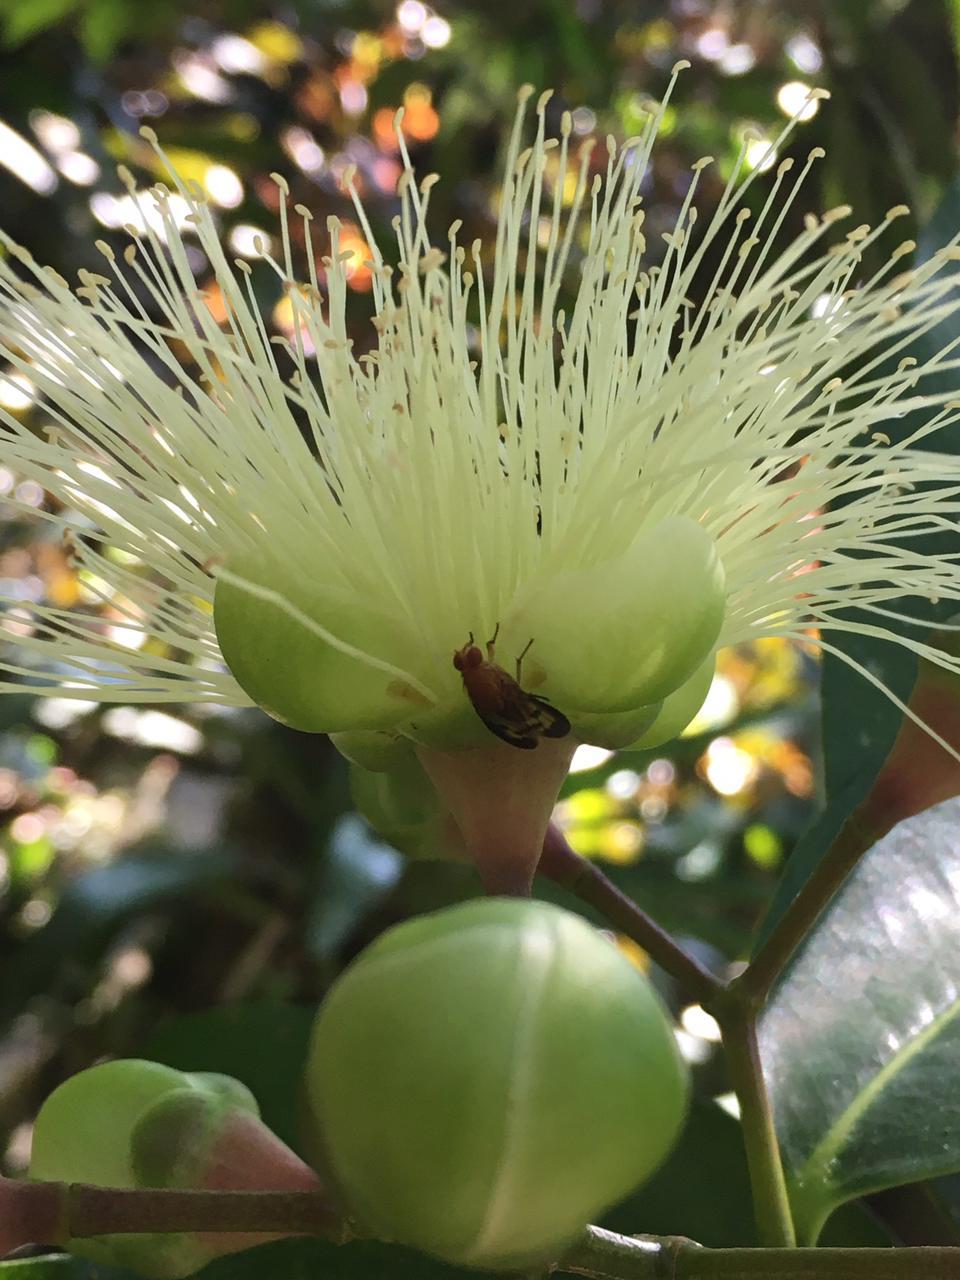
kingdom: Plantae
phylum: Tracheophyta
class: Magnoliopsida
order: Myrtales
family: Myrtaceae
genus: Syzygium
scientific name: Syzygium jambos
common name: Malabar plum
